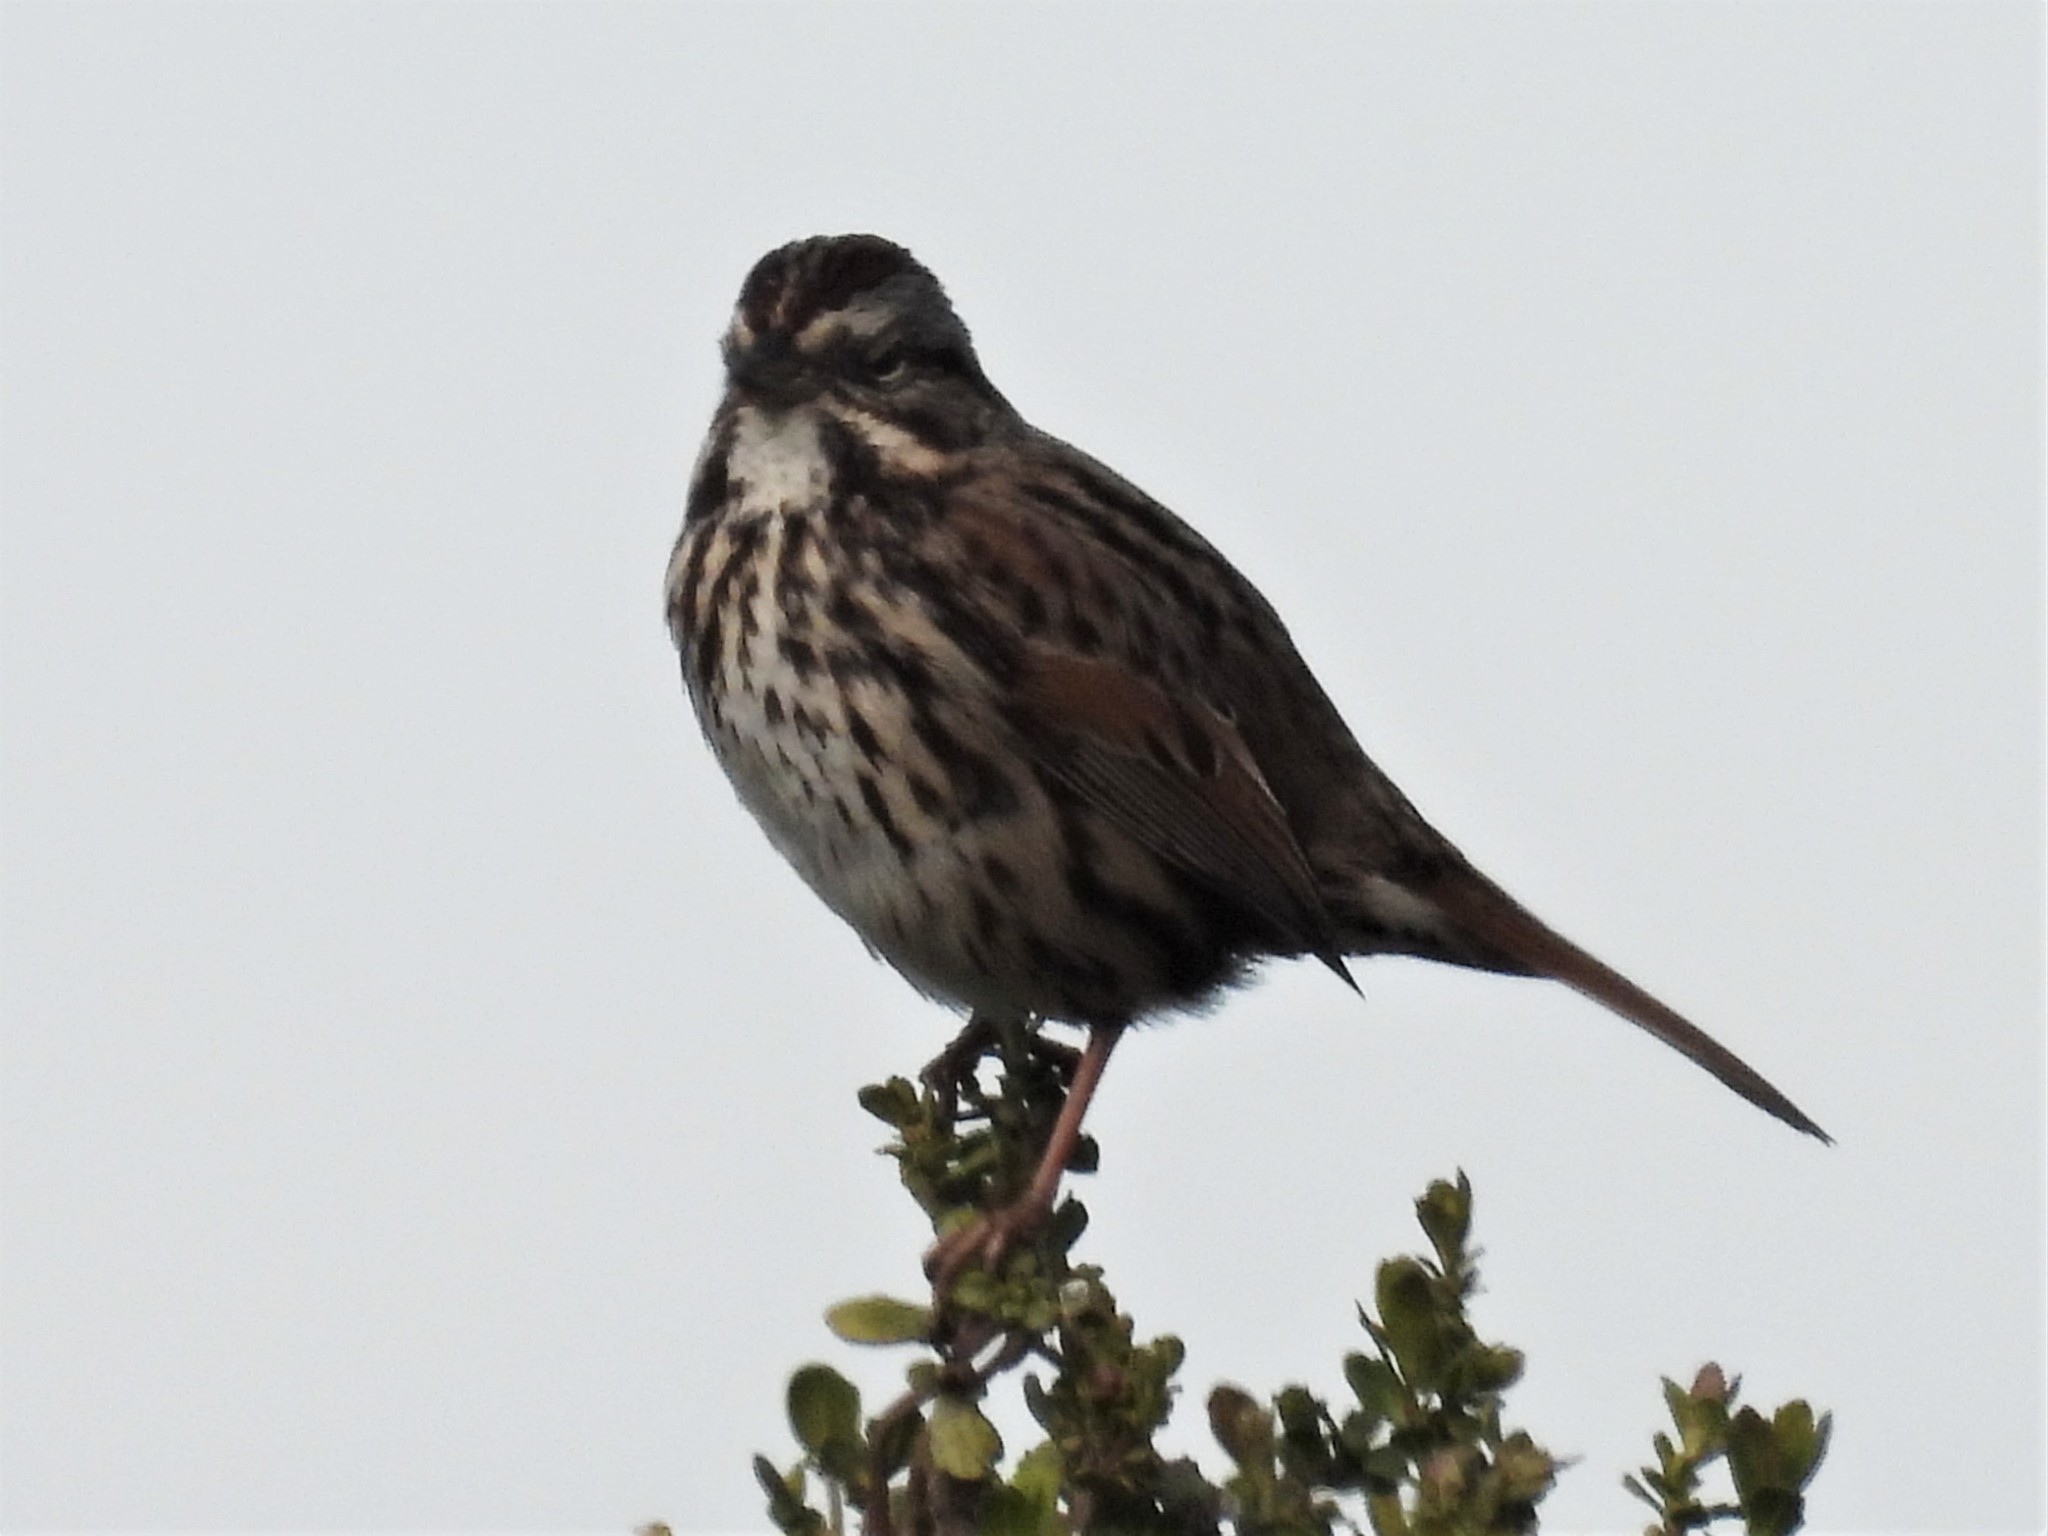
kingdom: Animalia
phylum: Chordata
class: Aves
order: Passeriformes
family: Passerellidae
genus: Melospiza
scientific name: Melospiza melodia
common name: Song sparrow
